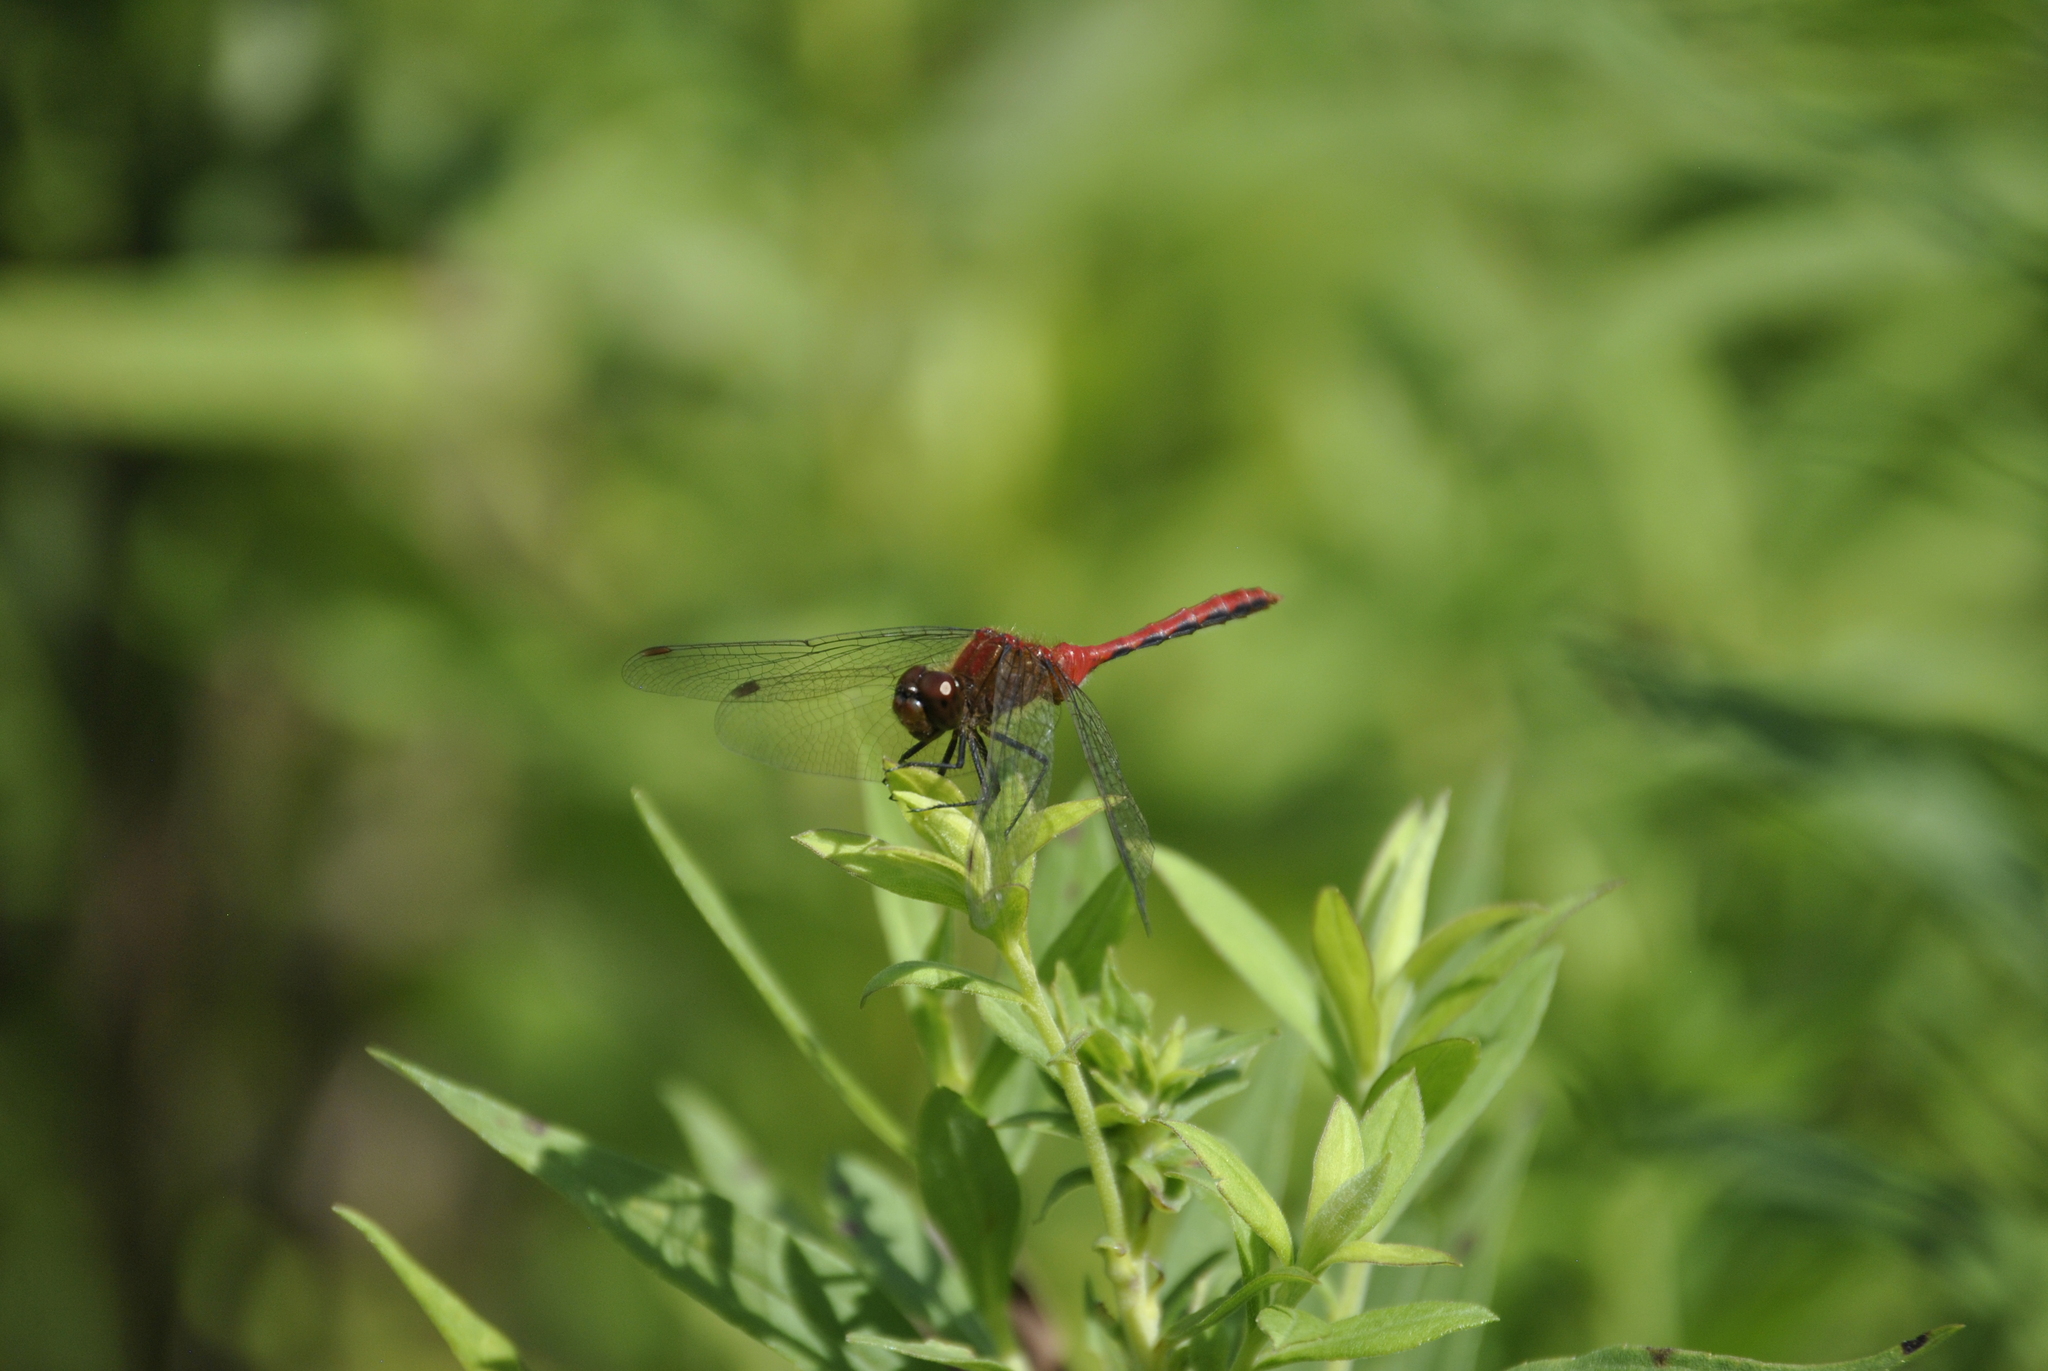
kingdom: Animalia
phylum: Arthropoda
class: Insecta
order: Odonata
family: Libellulidae
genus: Sympetrum
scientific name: Sympetrum
